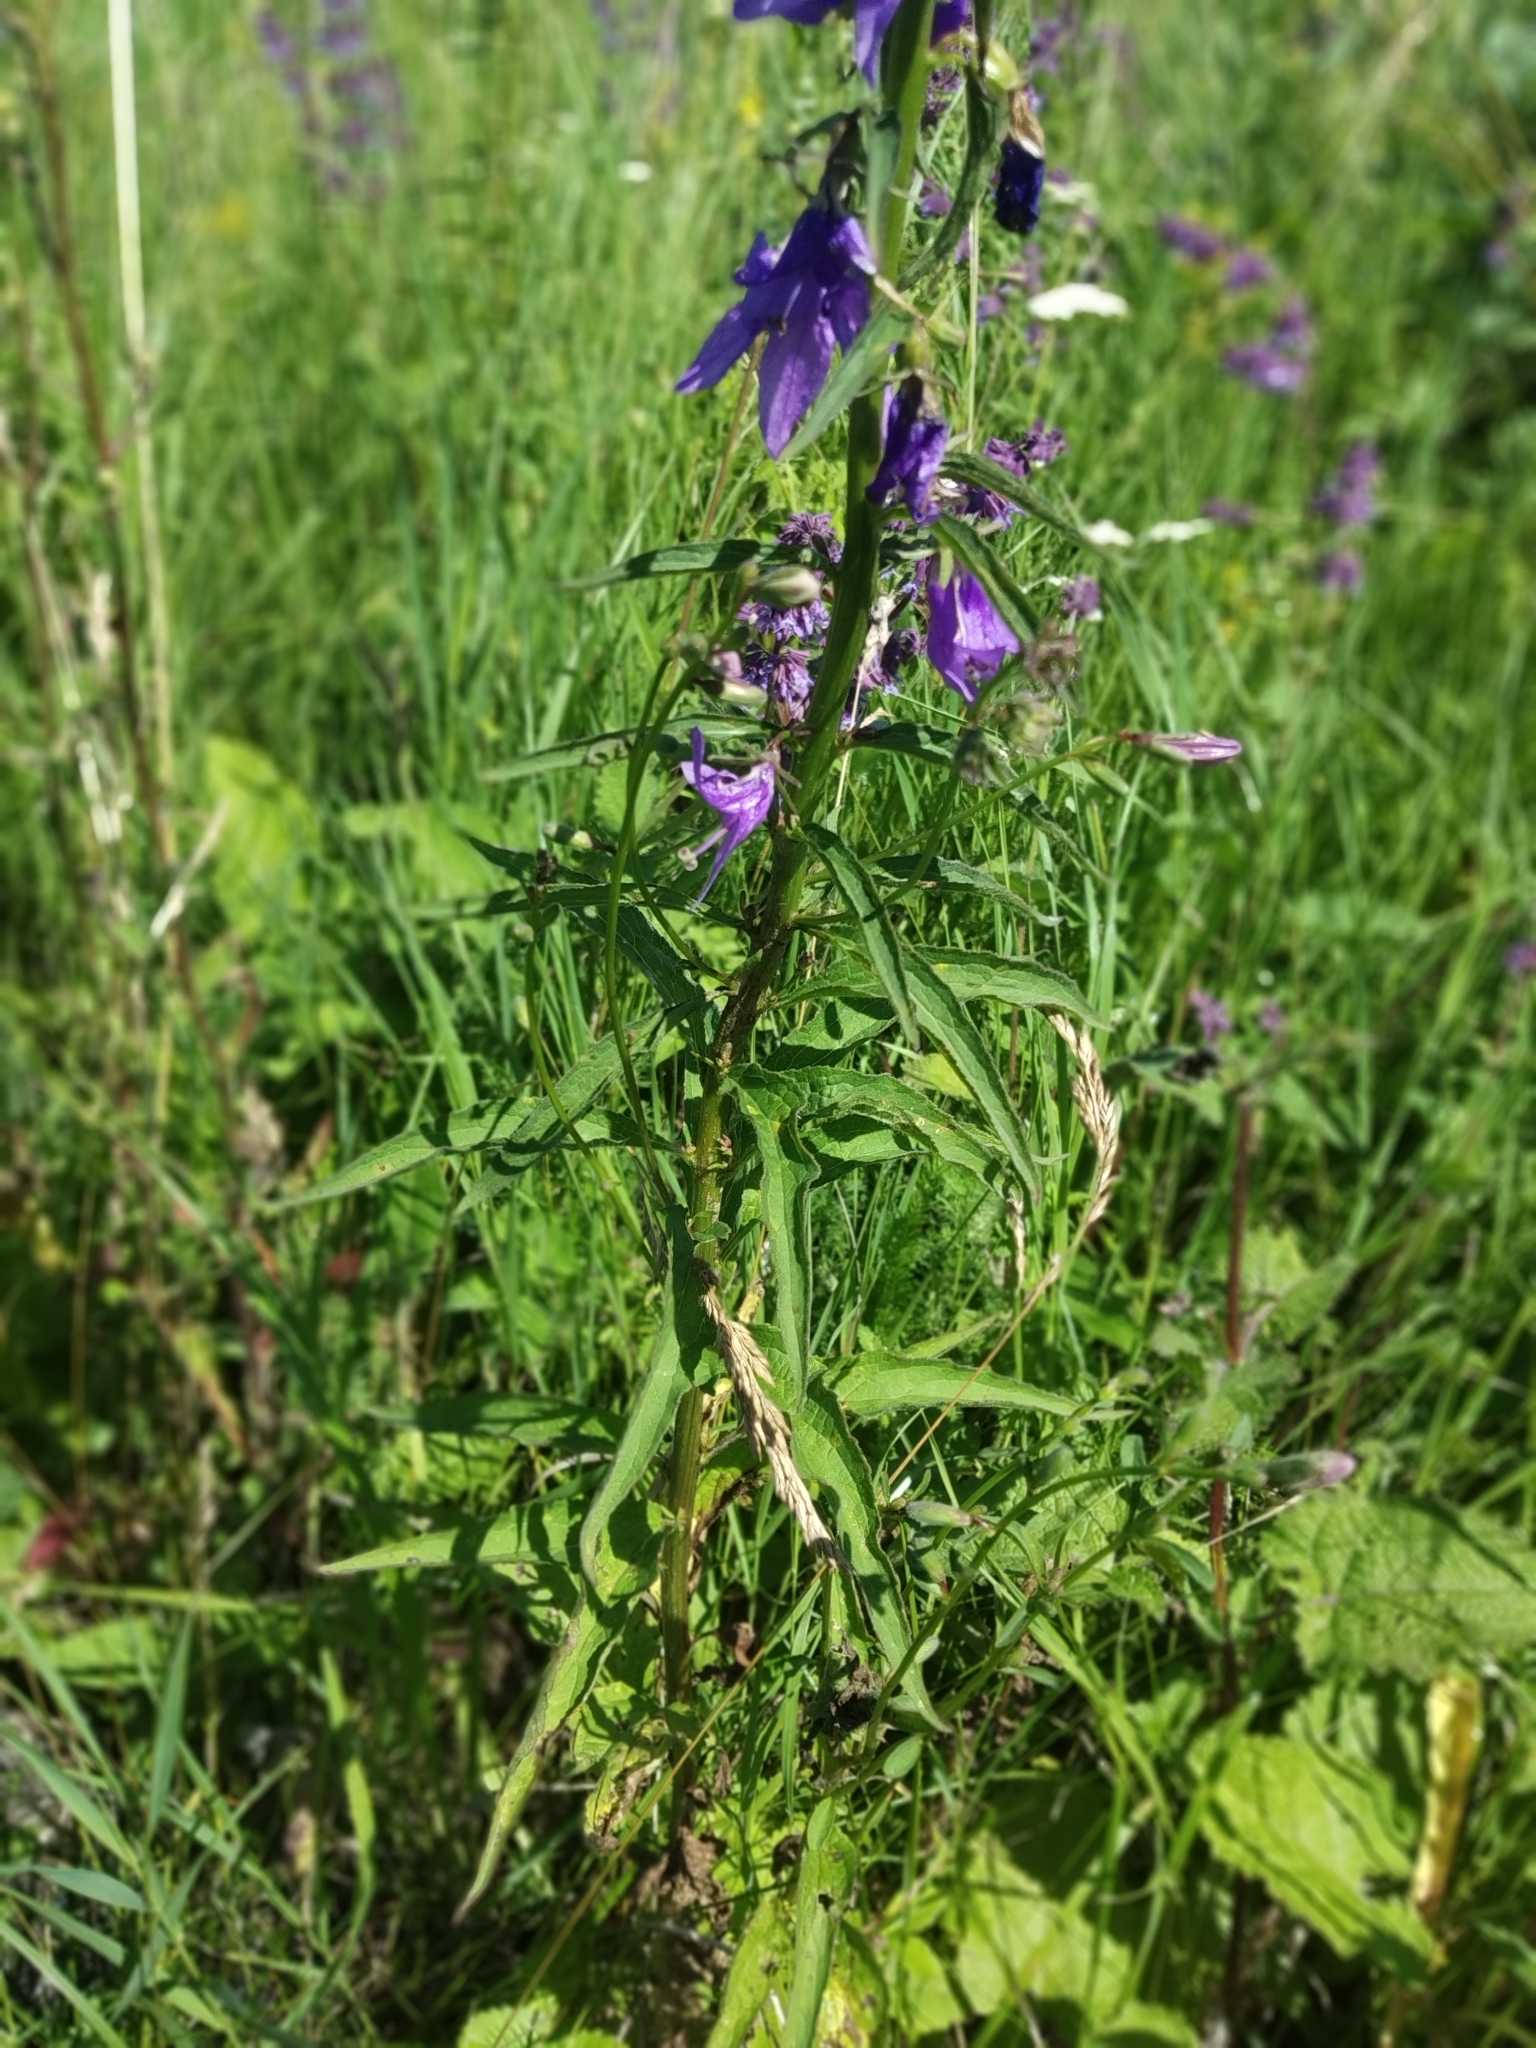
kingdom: Plantae
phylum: Tracheophyta
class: Magnoliopsida
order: Asterales
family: Campanulaceae
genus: Campanula
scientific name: Campanula rapunculoides
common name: Creeping bellflower
